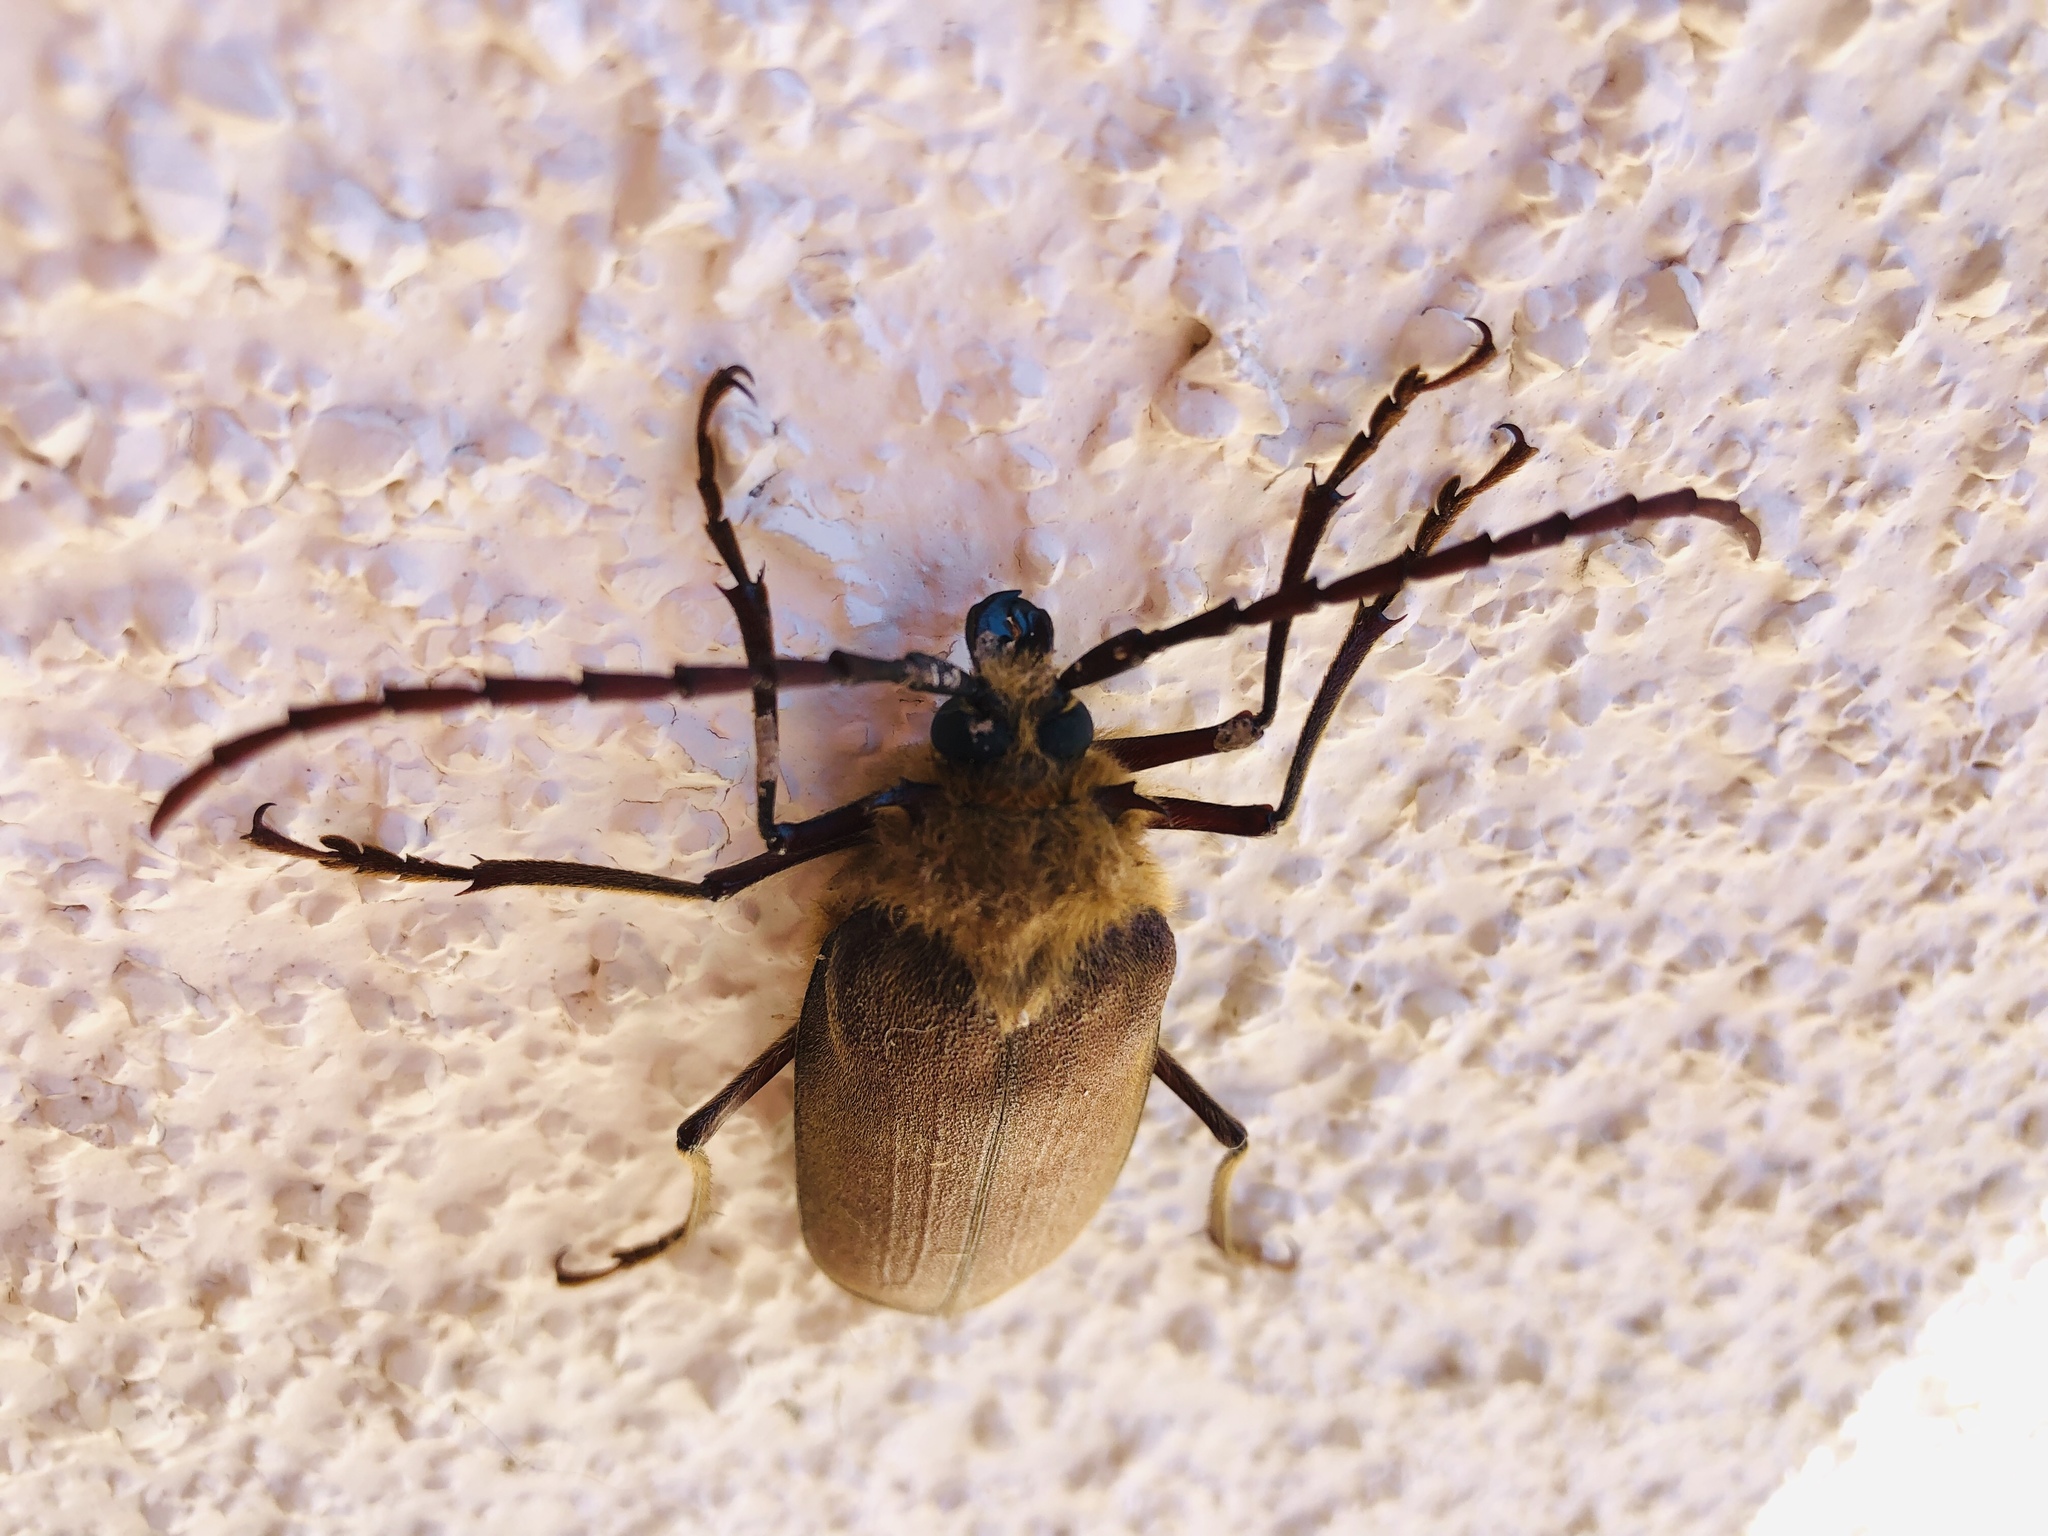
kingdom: Animalia
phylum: Arthropoda
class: Insecta
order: Coleoptera
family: Cerambycidae
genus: Acanthinodera
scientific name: Acanthinodera cumingii
